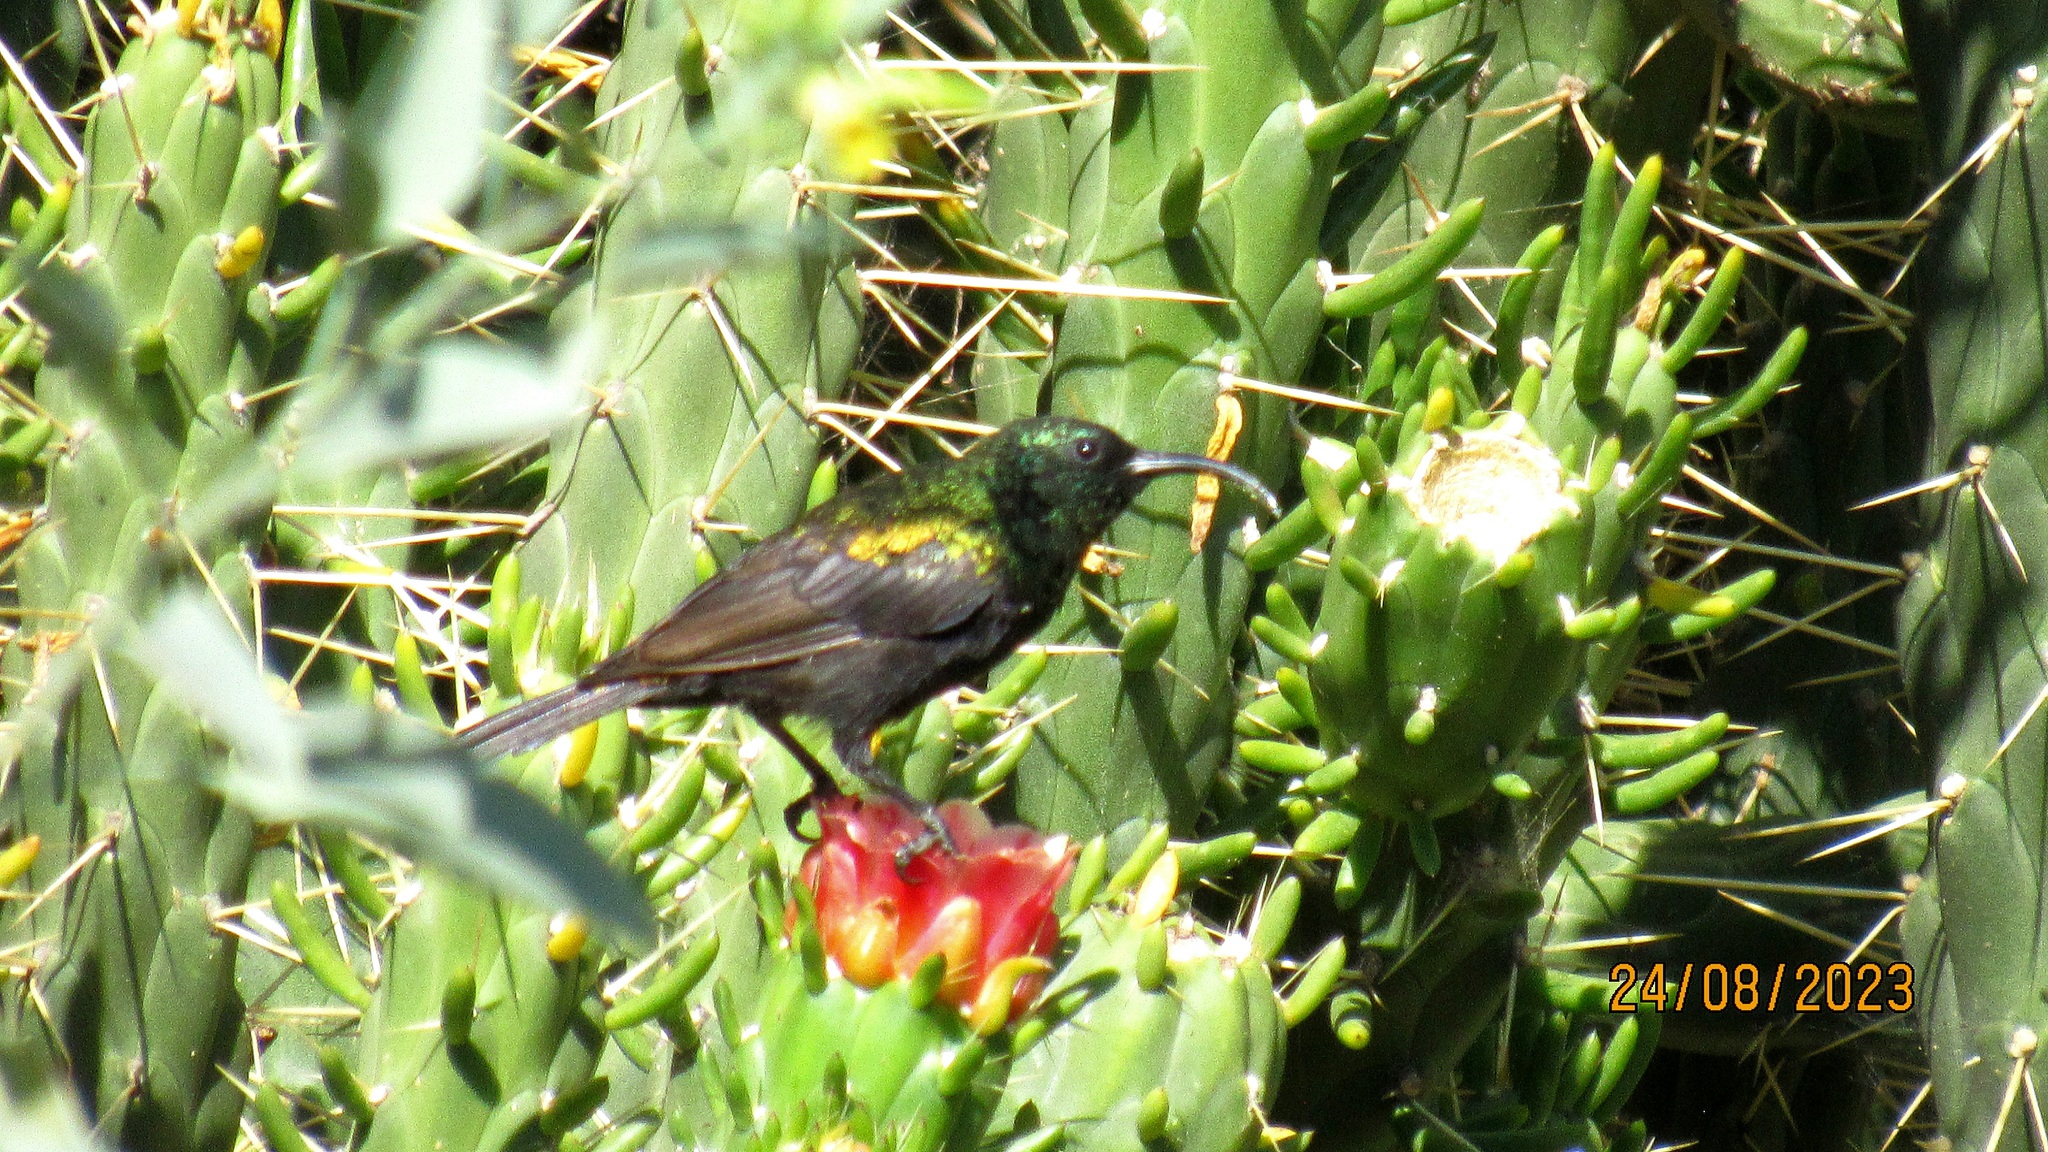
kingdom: Animalia
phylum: Chordata
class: Aves
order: Passeriformes
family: Nectariniidae
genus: Nectarinia
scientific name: Nectarinia kilimensis
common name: Bronzy sunbird
